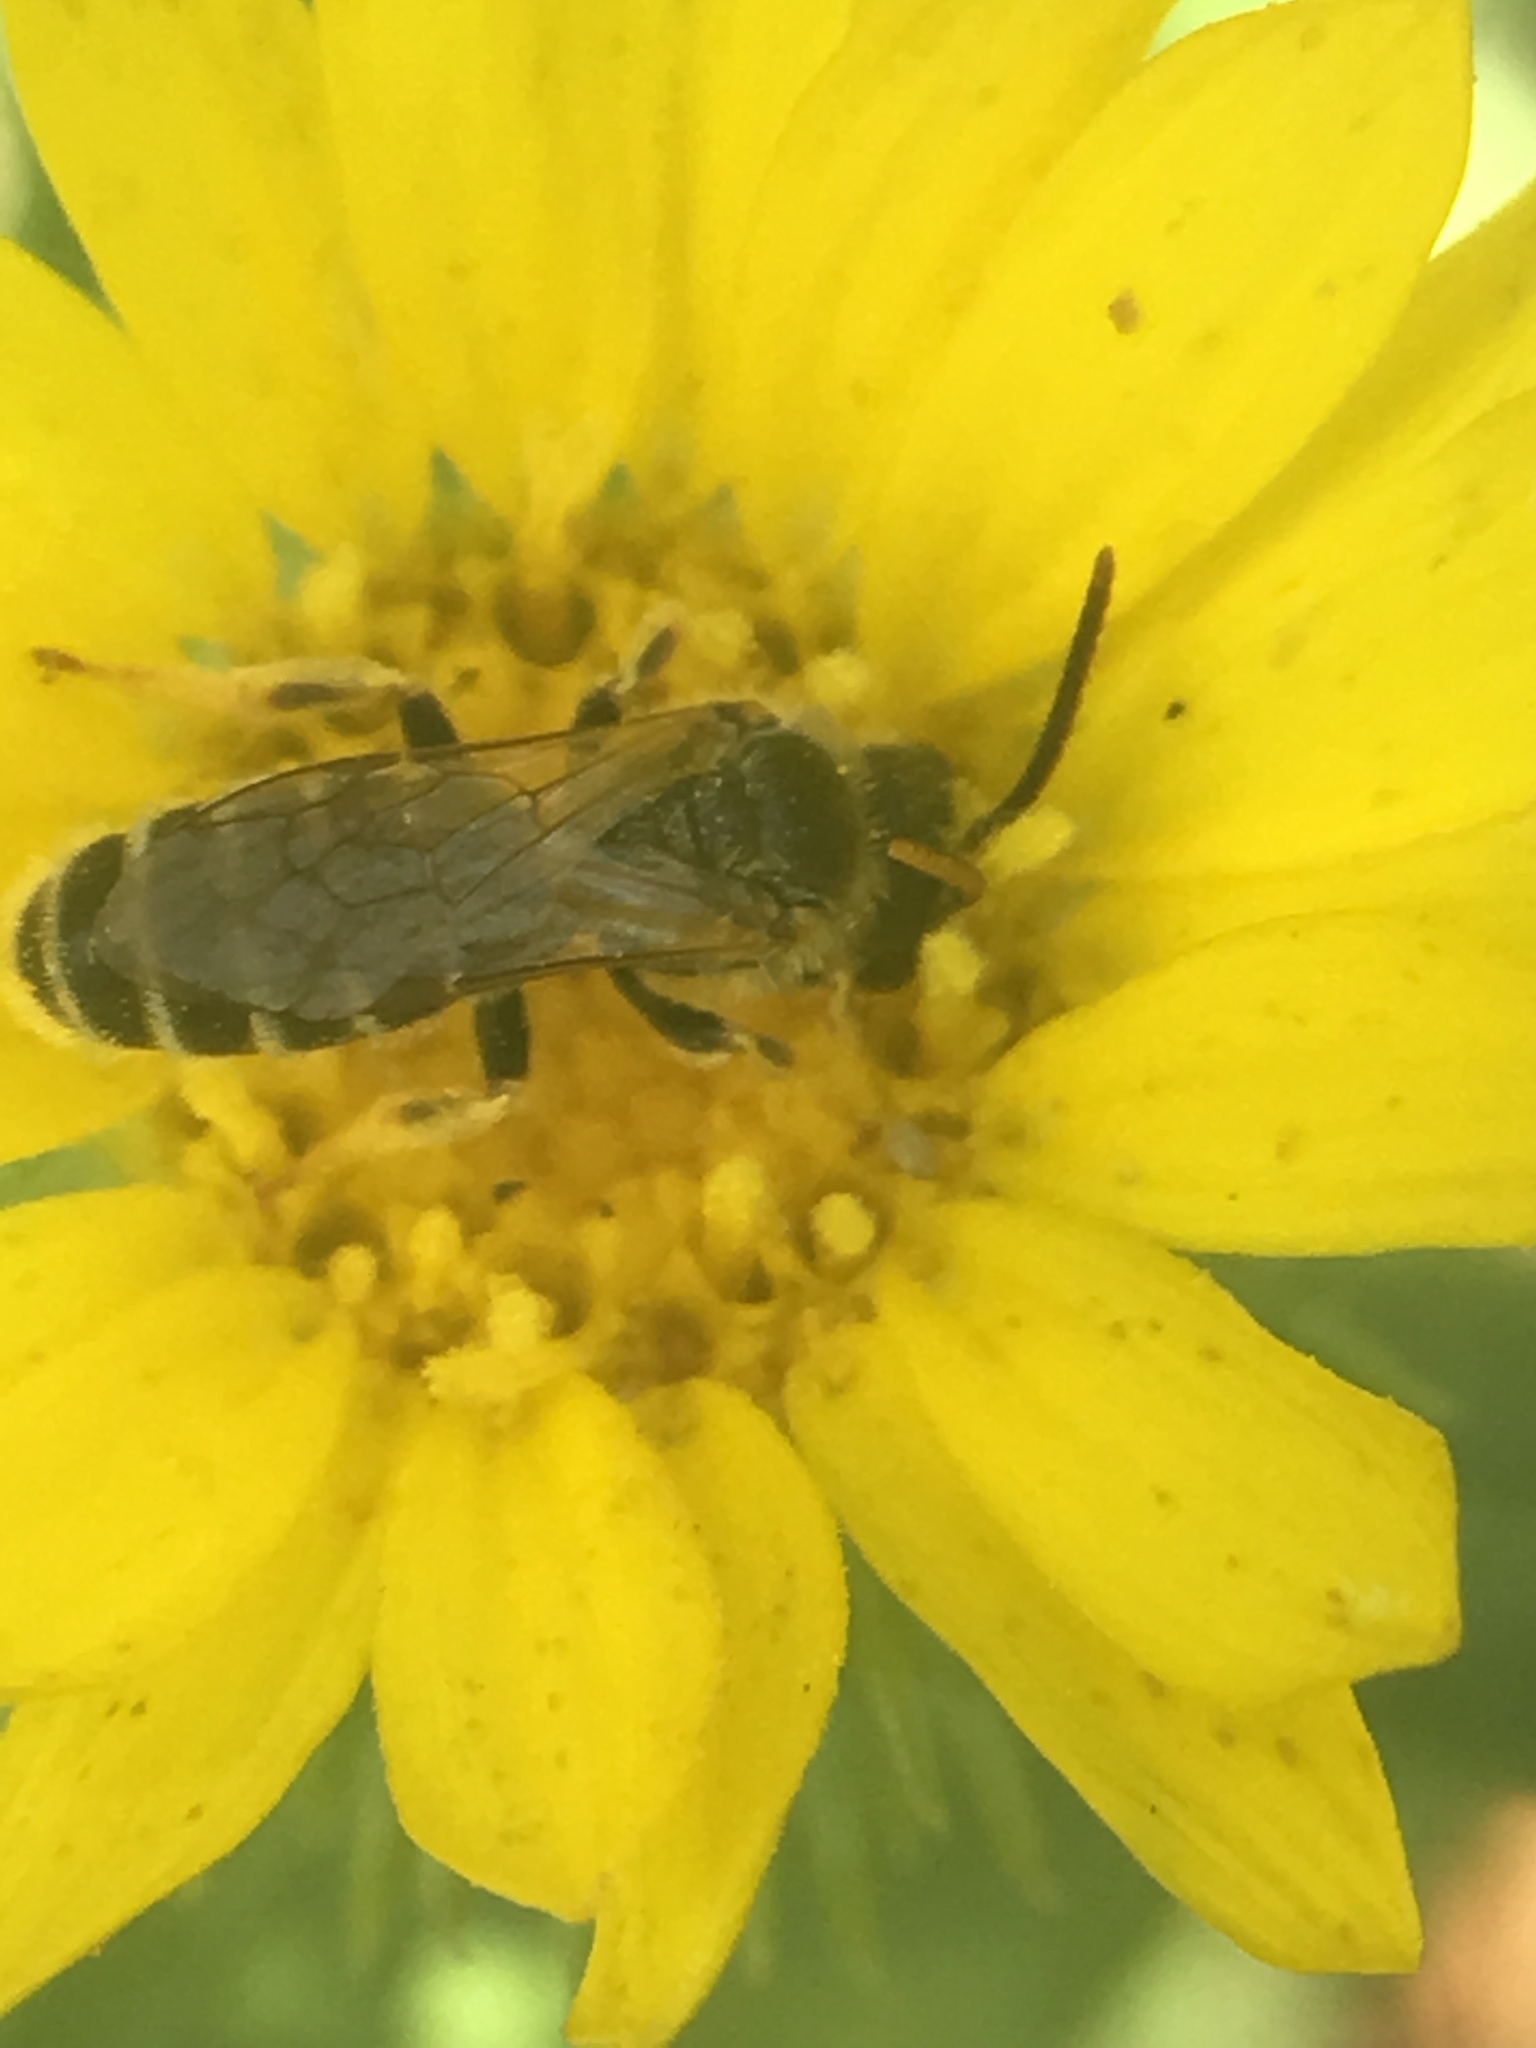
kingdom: Animalia
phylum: Arthropoda
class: Insecta
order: Hymenoptera
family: Halictidae
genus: Halictus
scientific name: Halictus ligatus
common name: Ligated furrow bee
